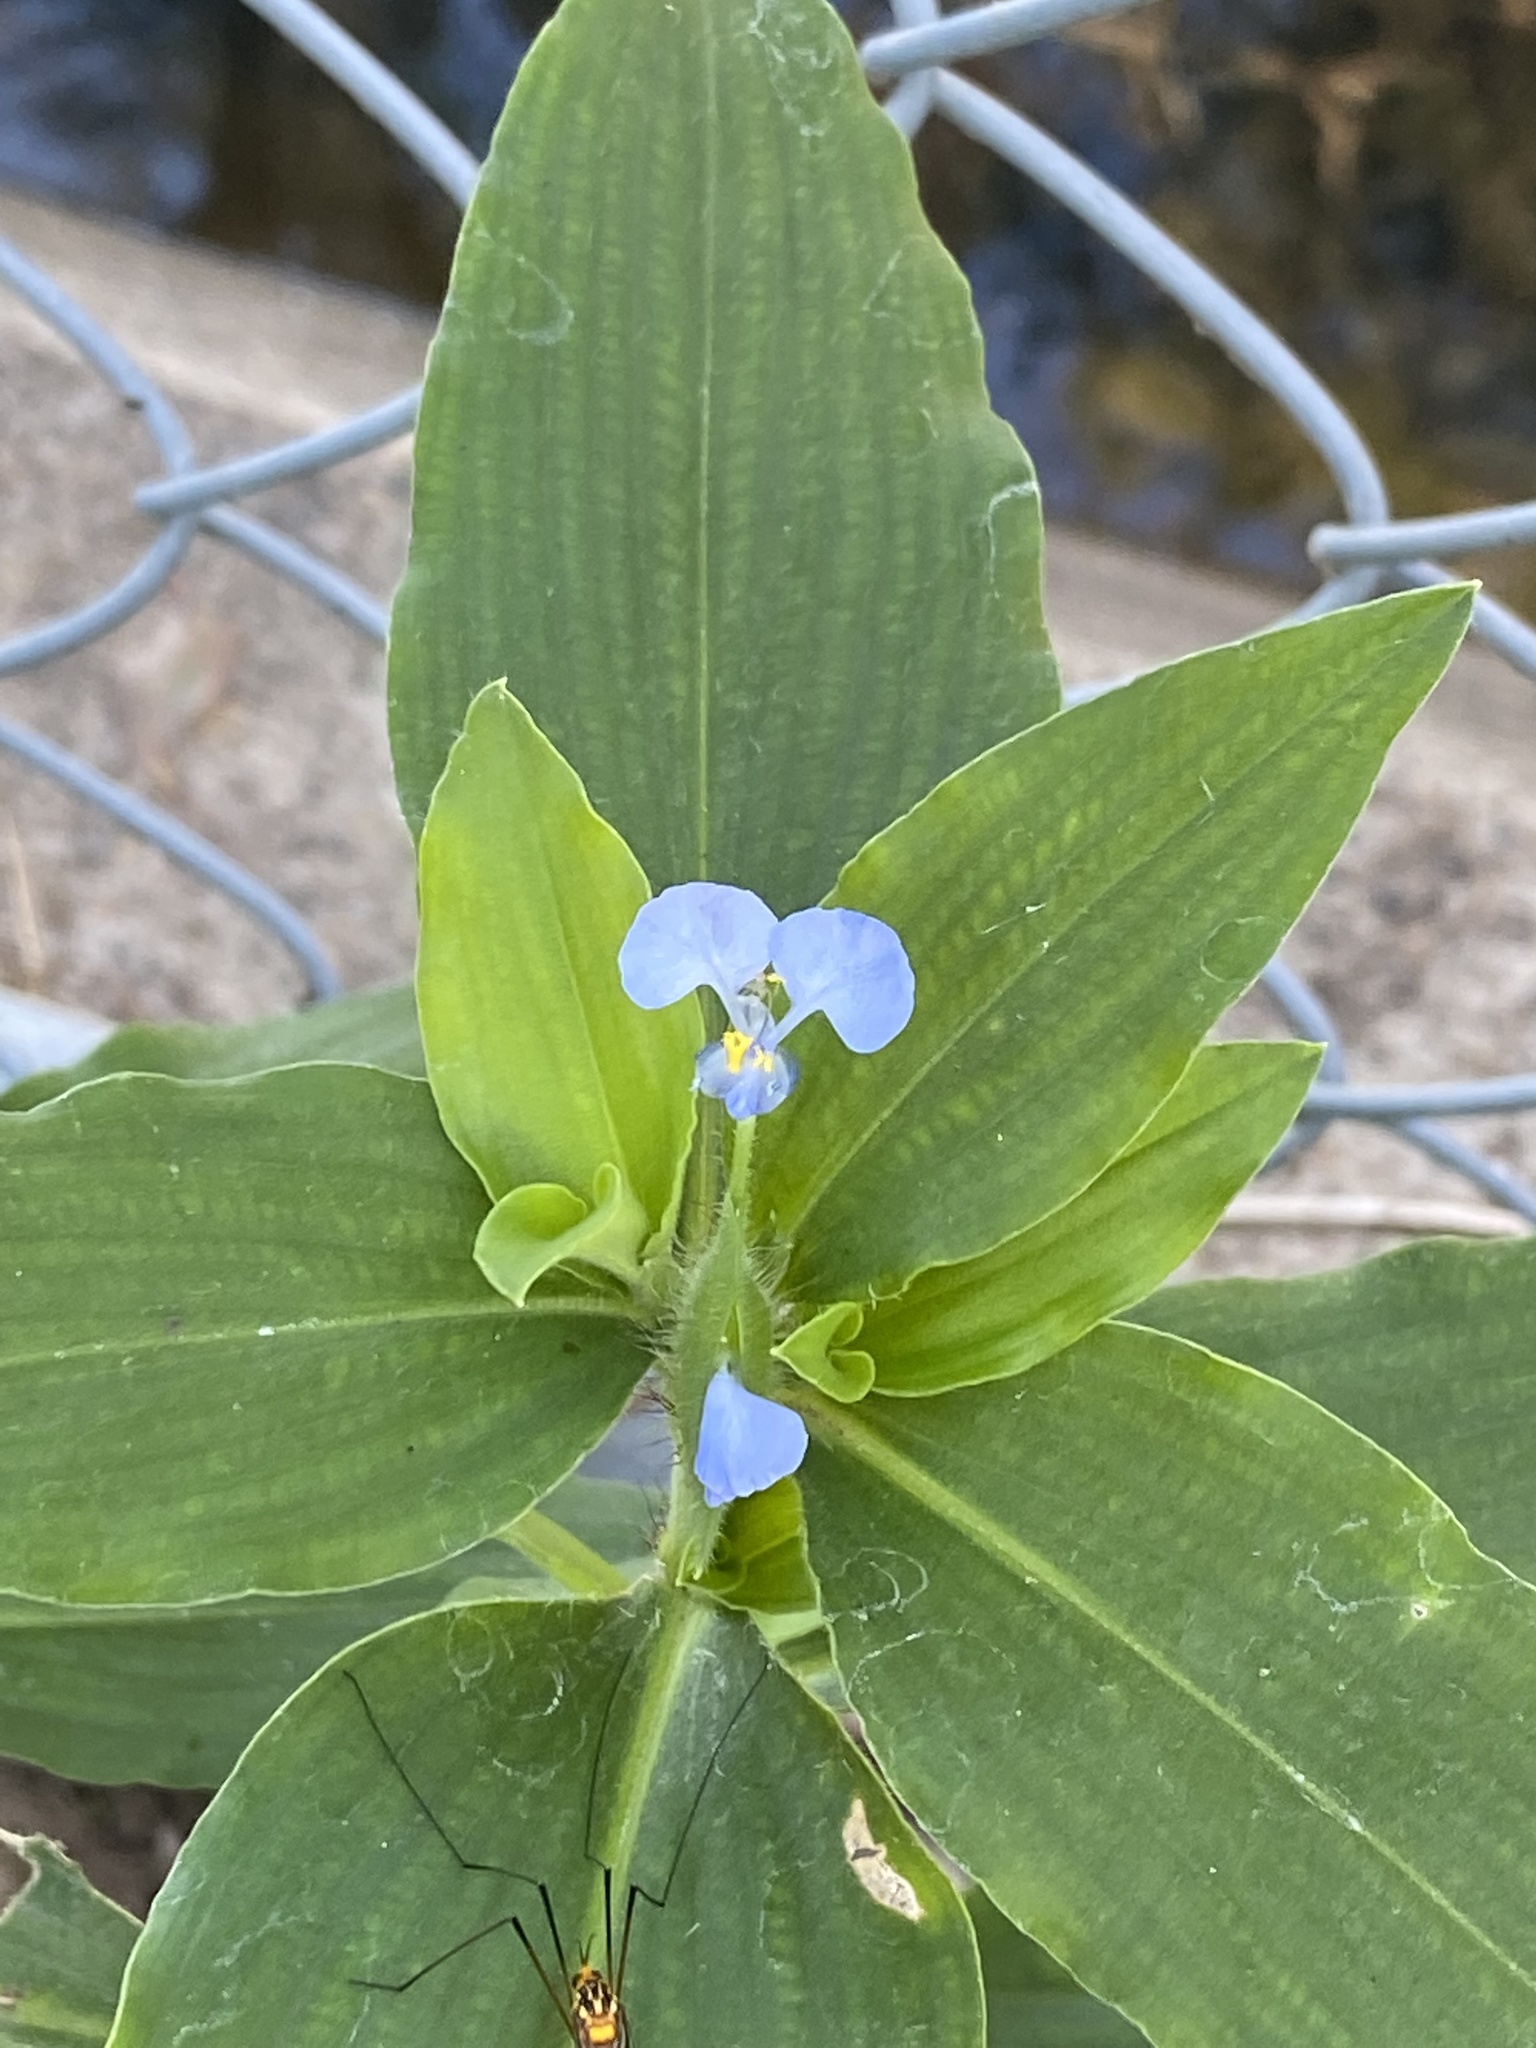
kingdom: Plantae
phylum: Tracheophyta
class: Liliopsida
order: Commelinales
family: Commelinaceae
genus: Commelina
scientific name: Commelina benghalensis
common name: Jio
